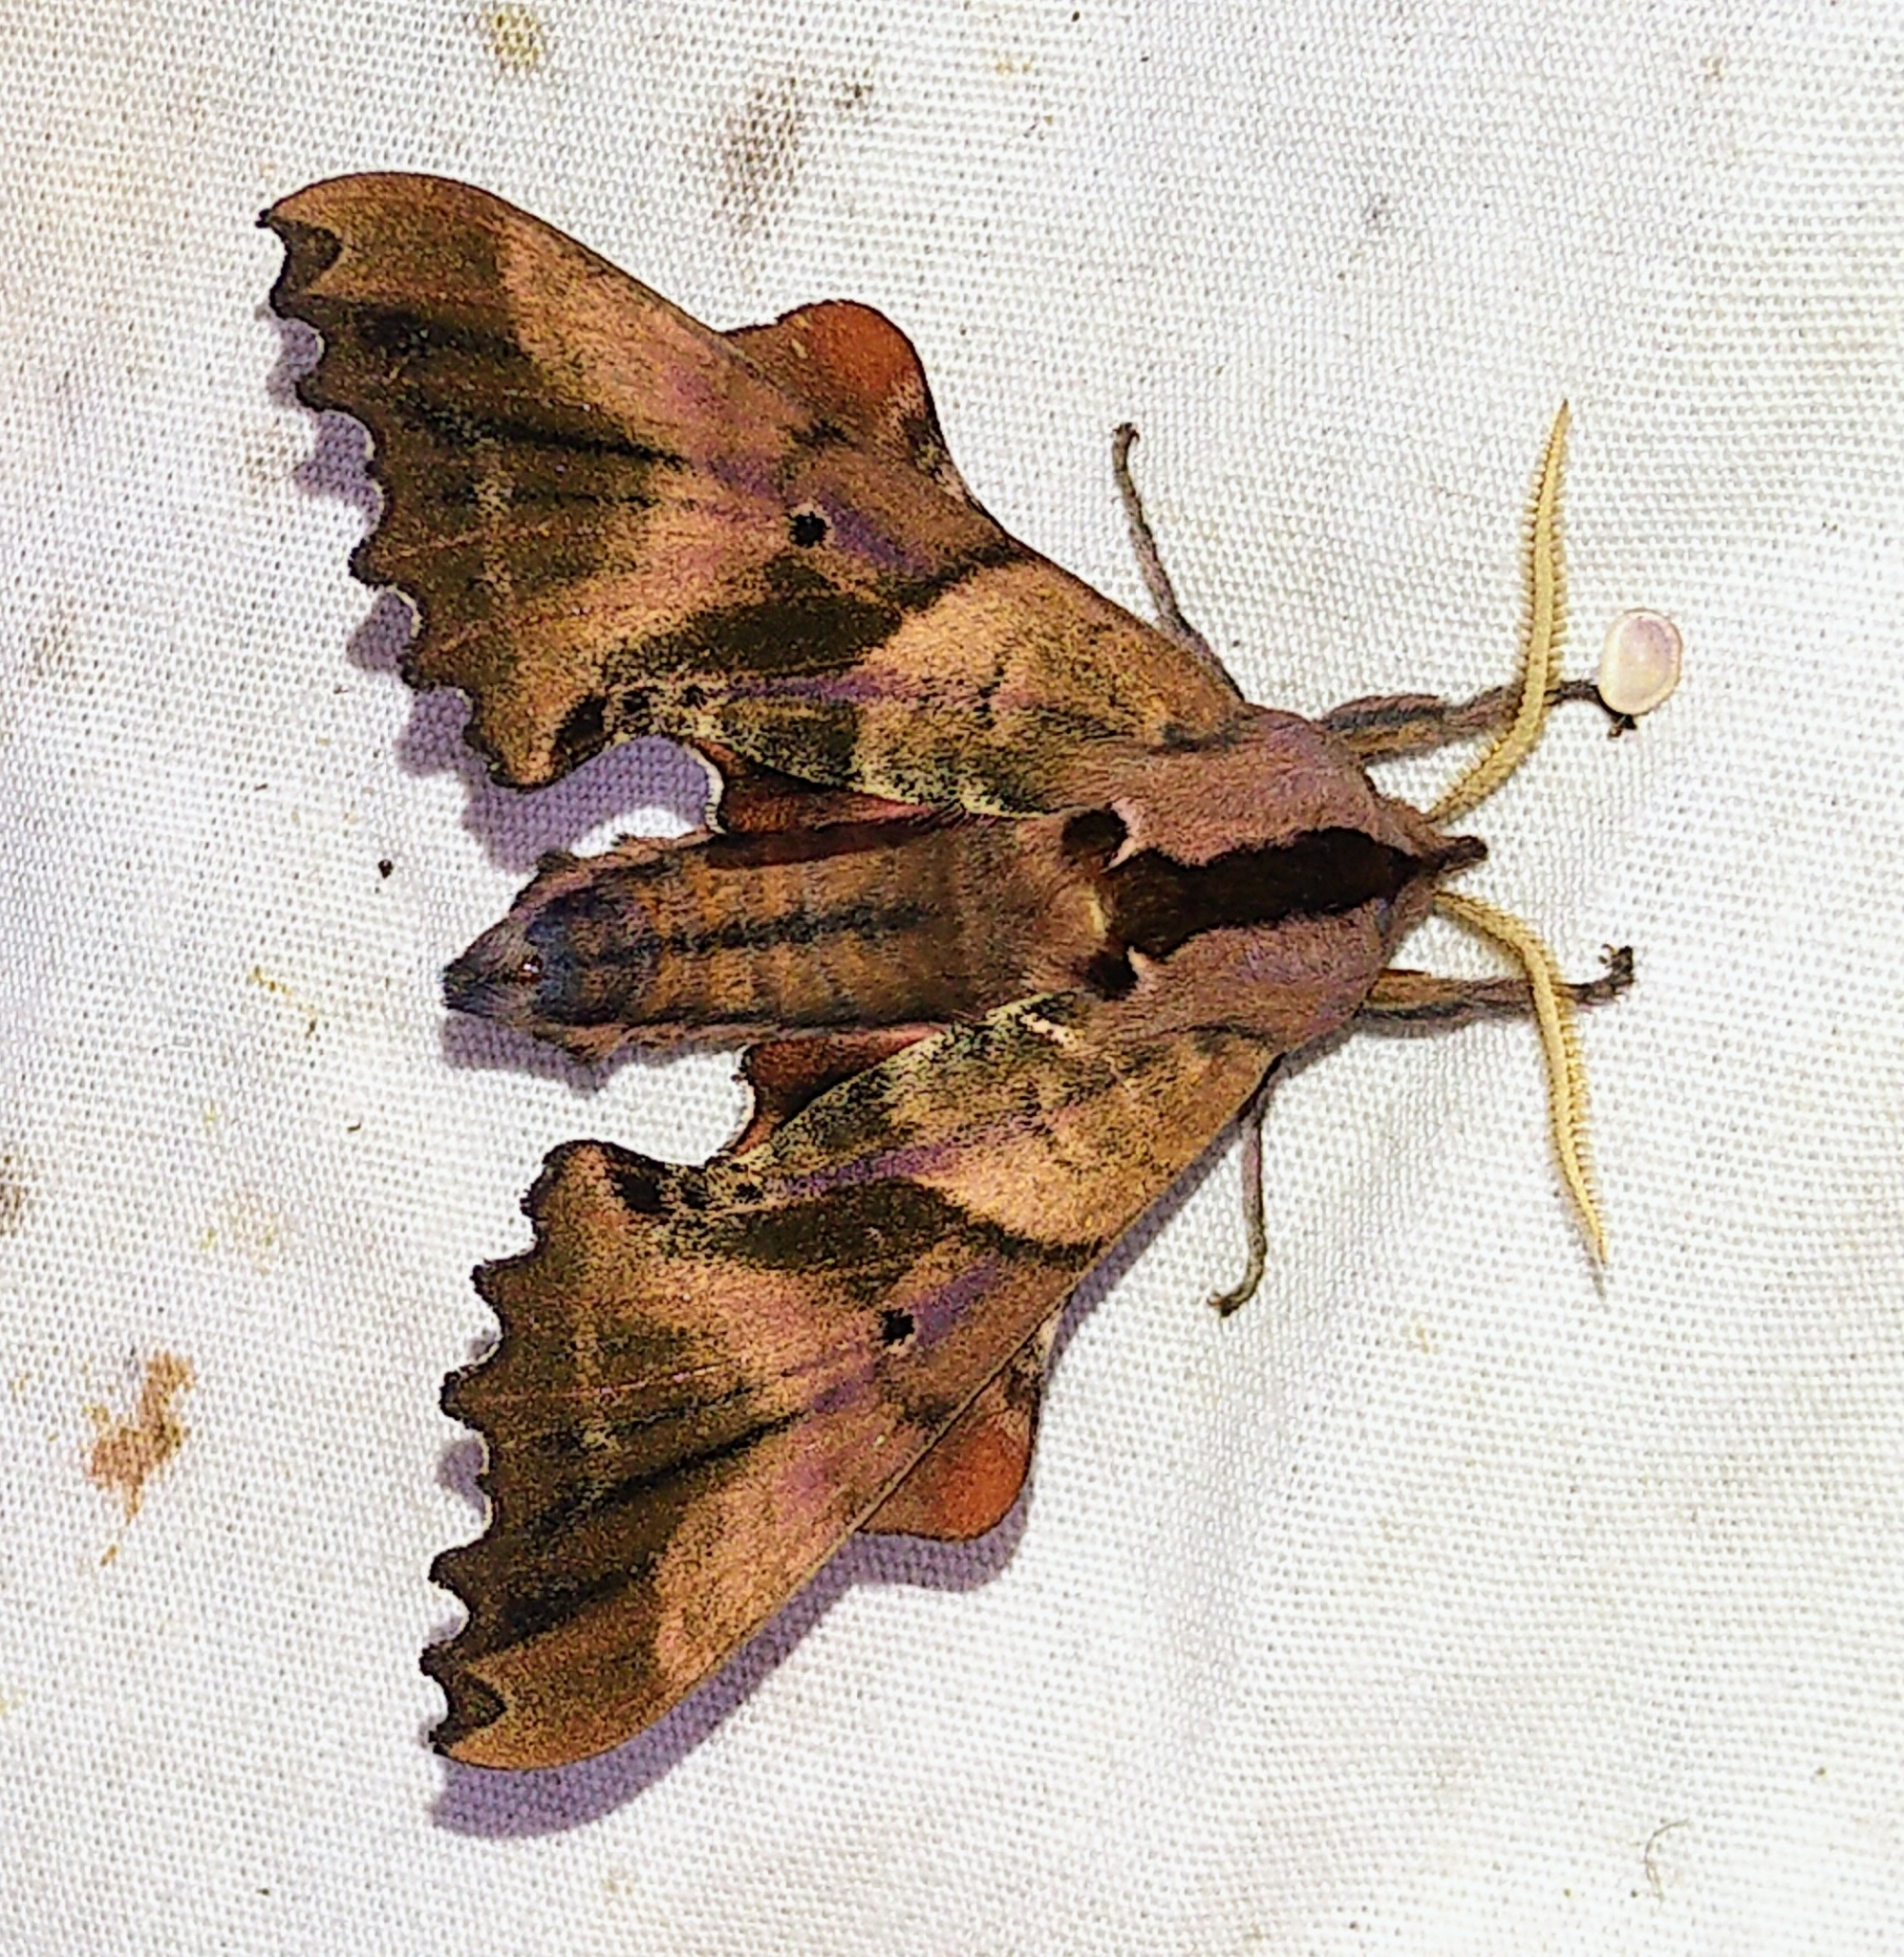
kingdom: Animalia
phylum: Arthropoda
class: Insecta
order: Lepidoptera
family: Sphingidae
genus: Paonias
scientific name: Paonias excaecata
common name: Blind-eyed sphinx
